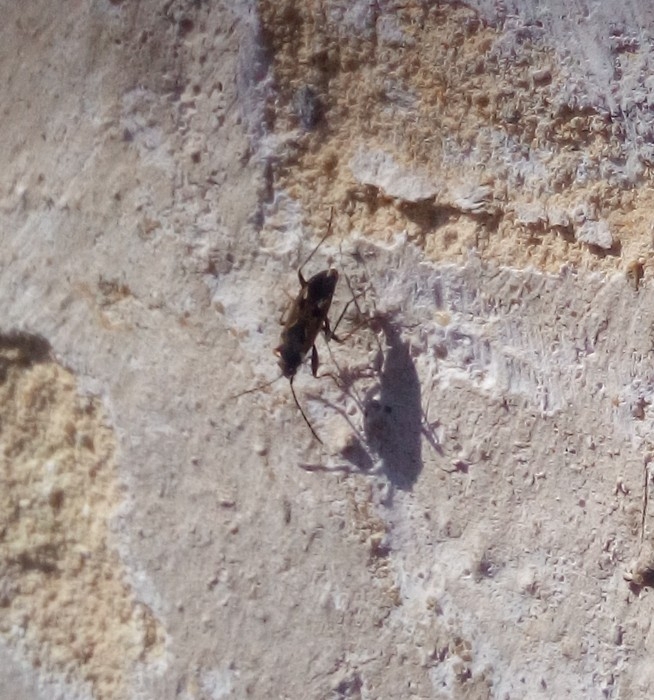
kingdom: Animalia
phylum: Arthropoda
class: Insecta
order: Hemiptera
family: Rhyparochromidae
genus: Rhyparochromus
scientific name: Rhyparochromus vulgaris
